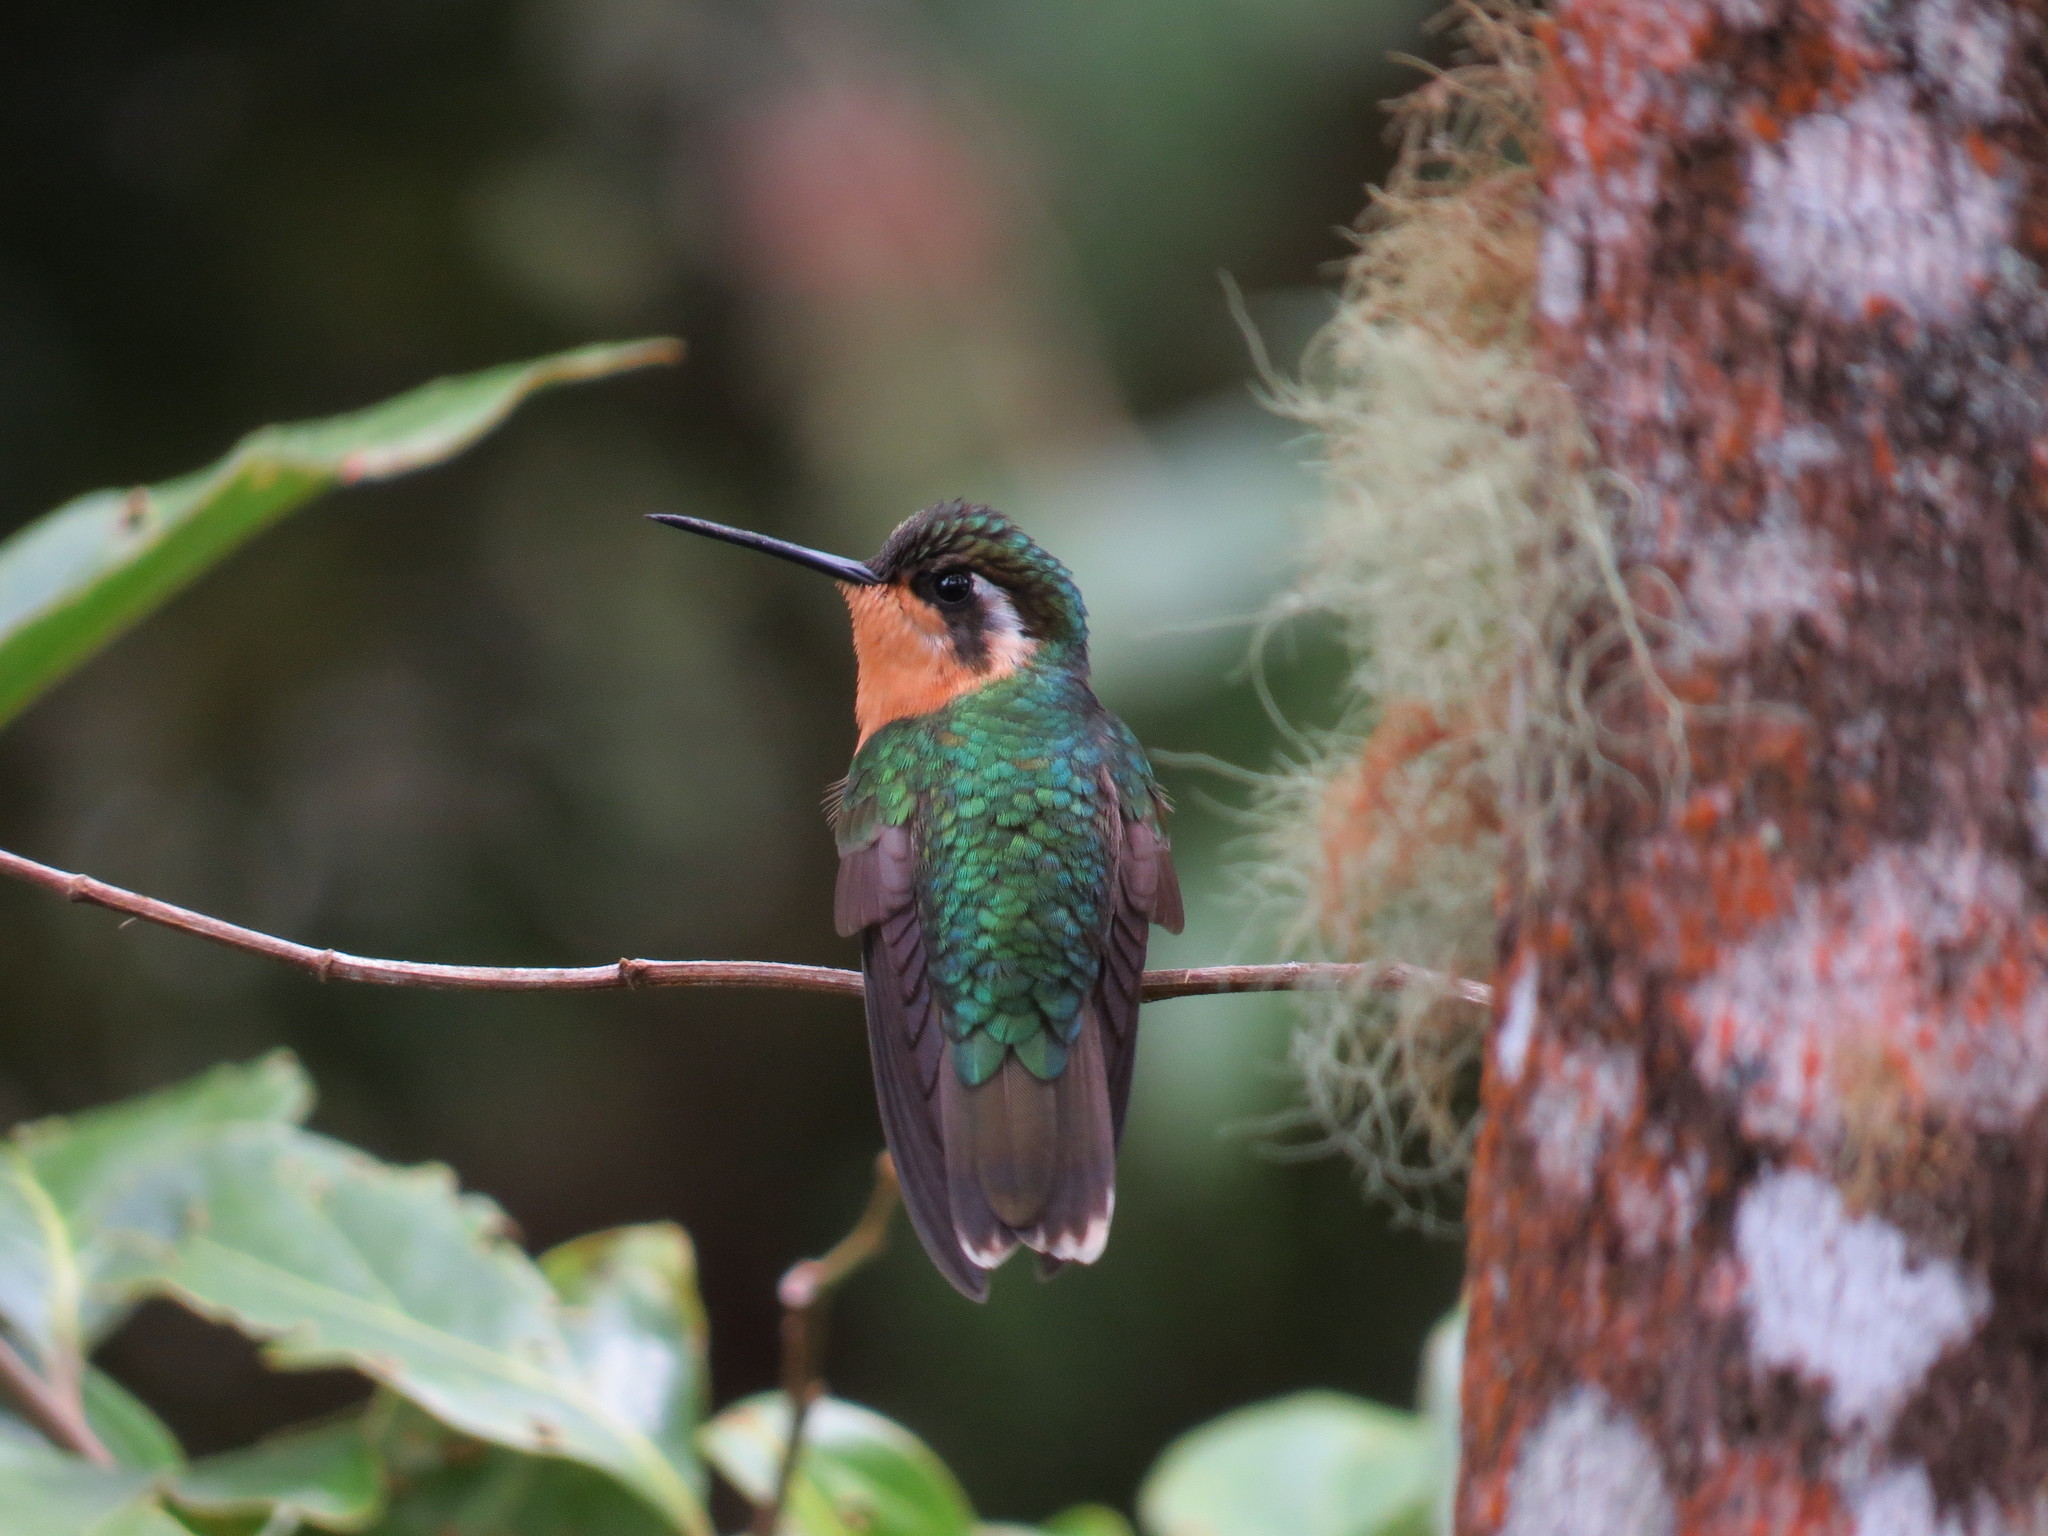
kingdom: Animalia
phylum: Chordata
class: Aves
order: Apodiformes
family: Trochilidae
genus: Lampornis
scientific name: Lampornis cinereicauda
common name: Grey-tailed mountaingem
